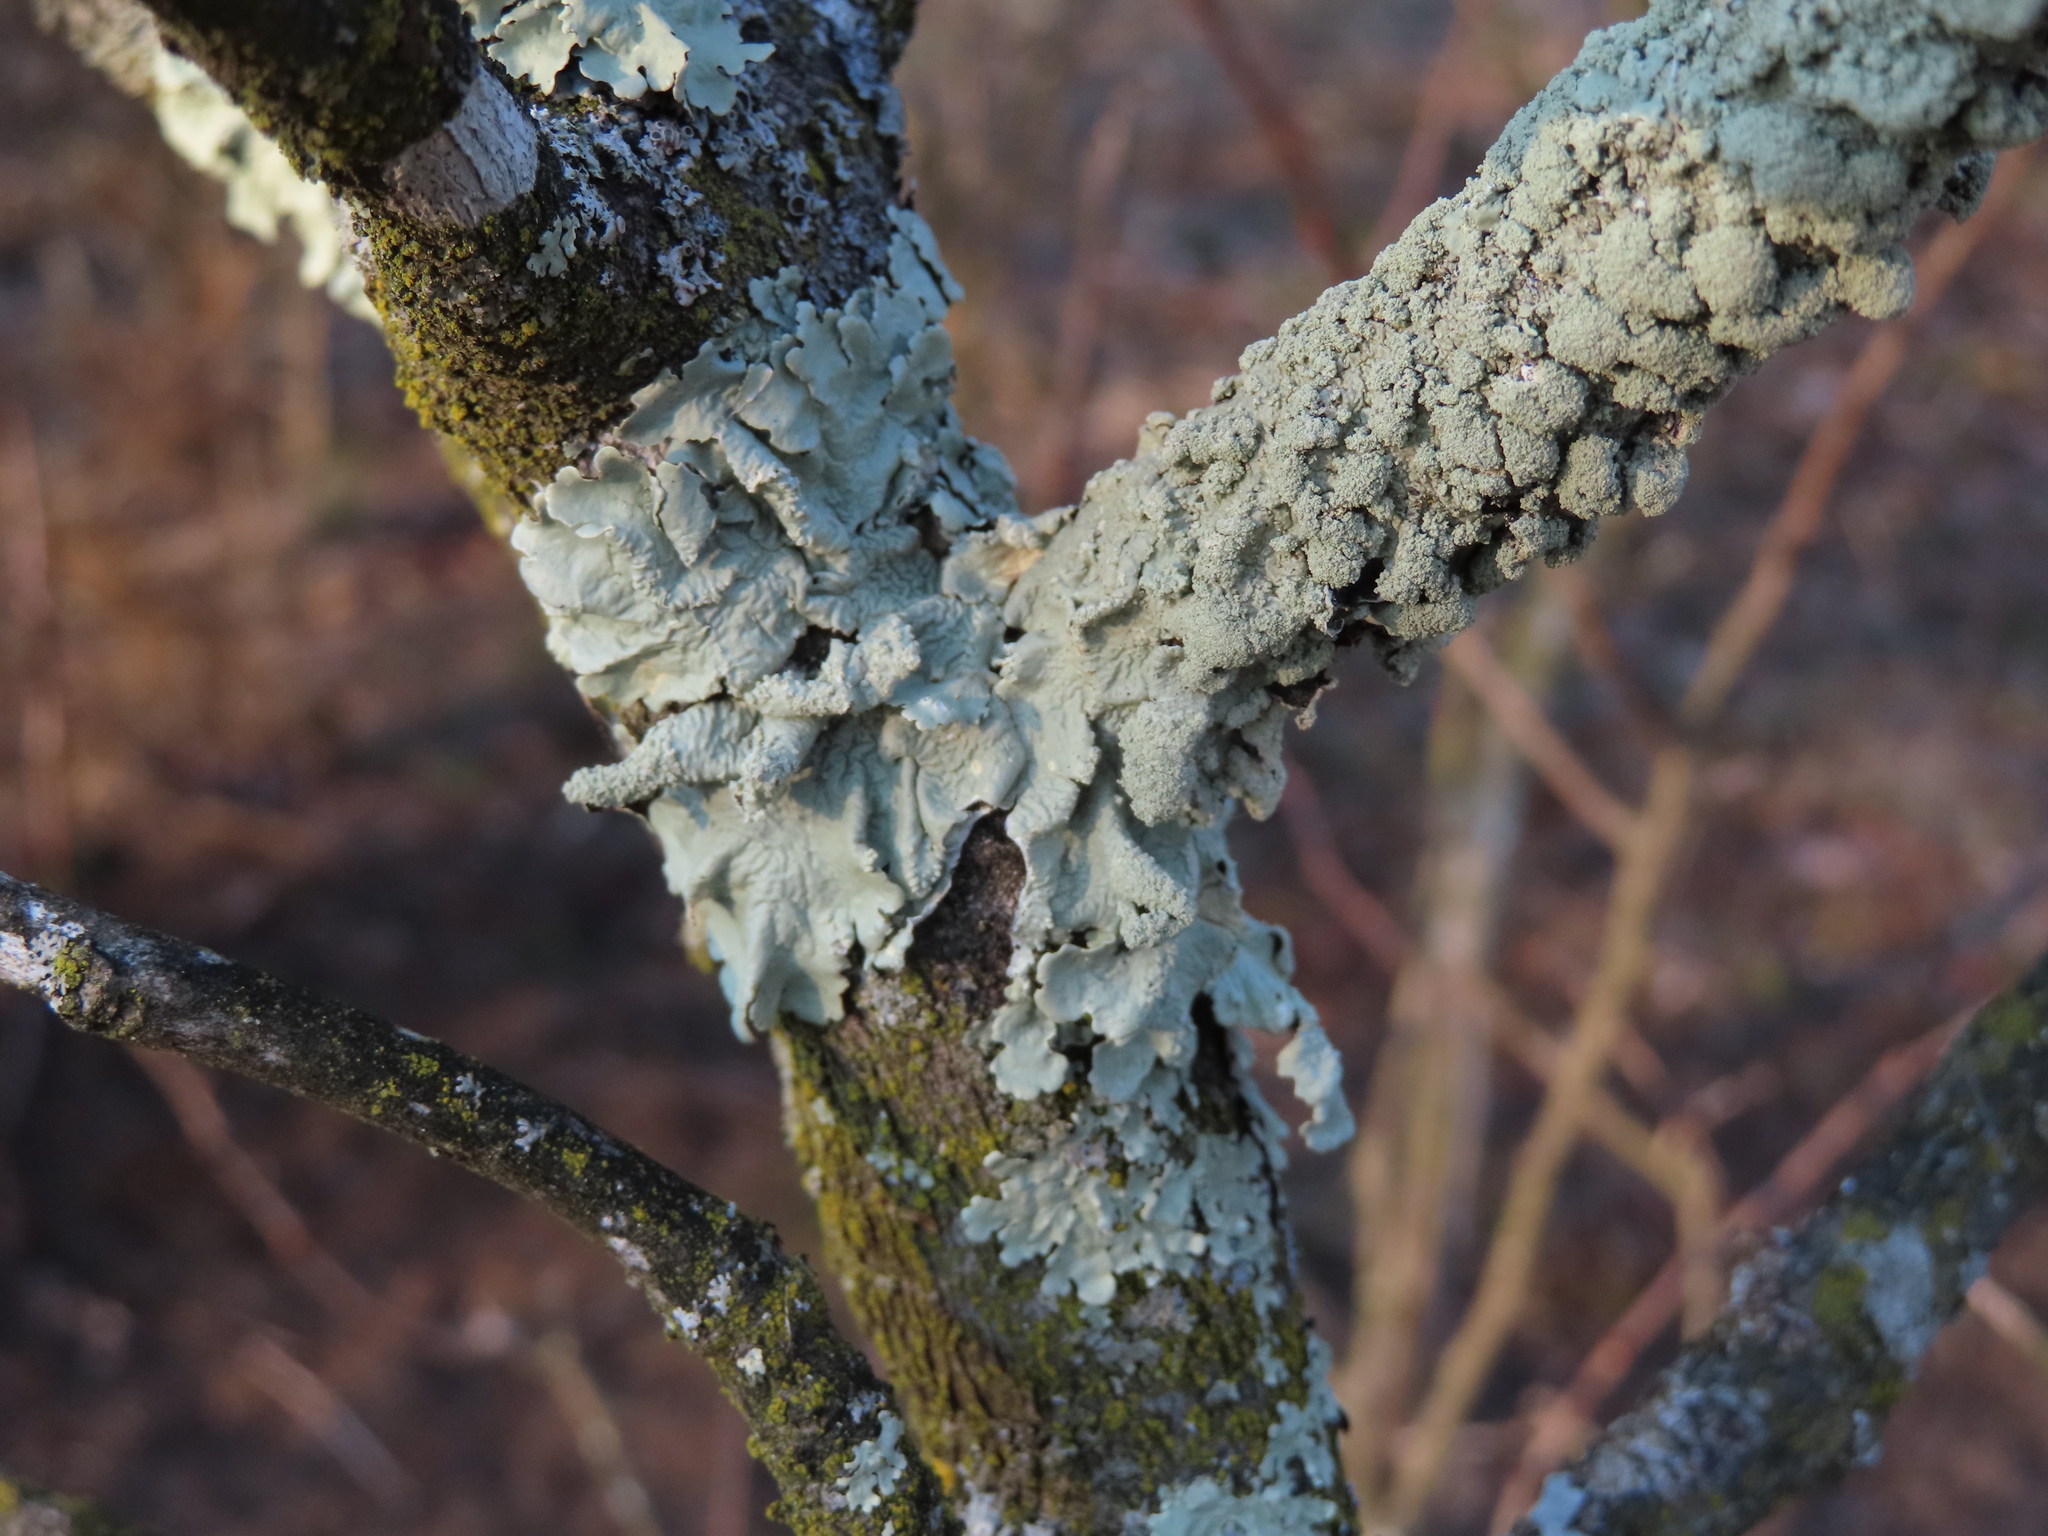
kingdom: Fungi
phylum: Ascomycota
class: Lecanoromycetes
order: Lecanorales
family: Parmeliaceae
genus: Flavoparmelia
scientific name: Flavoparmelia caperata
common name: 40-mile per hour lichen
